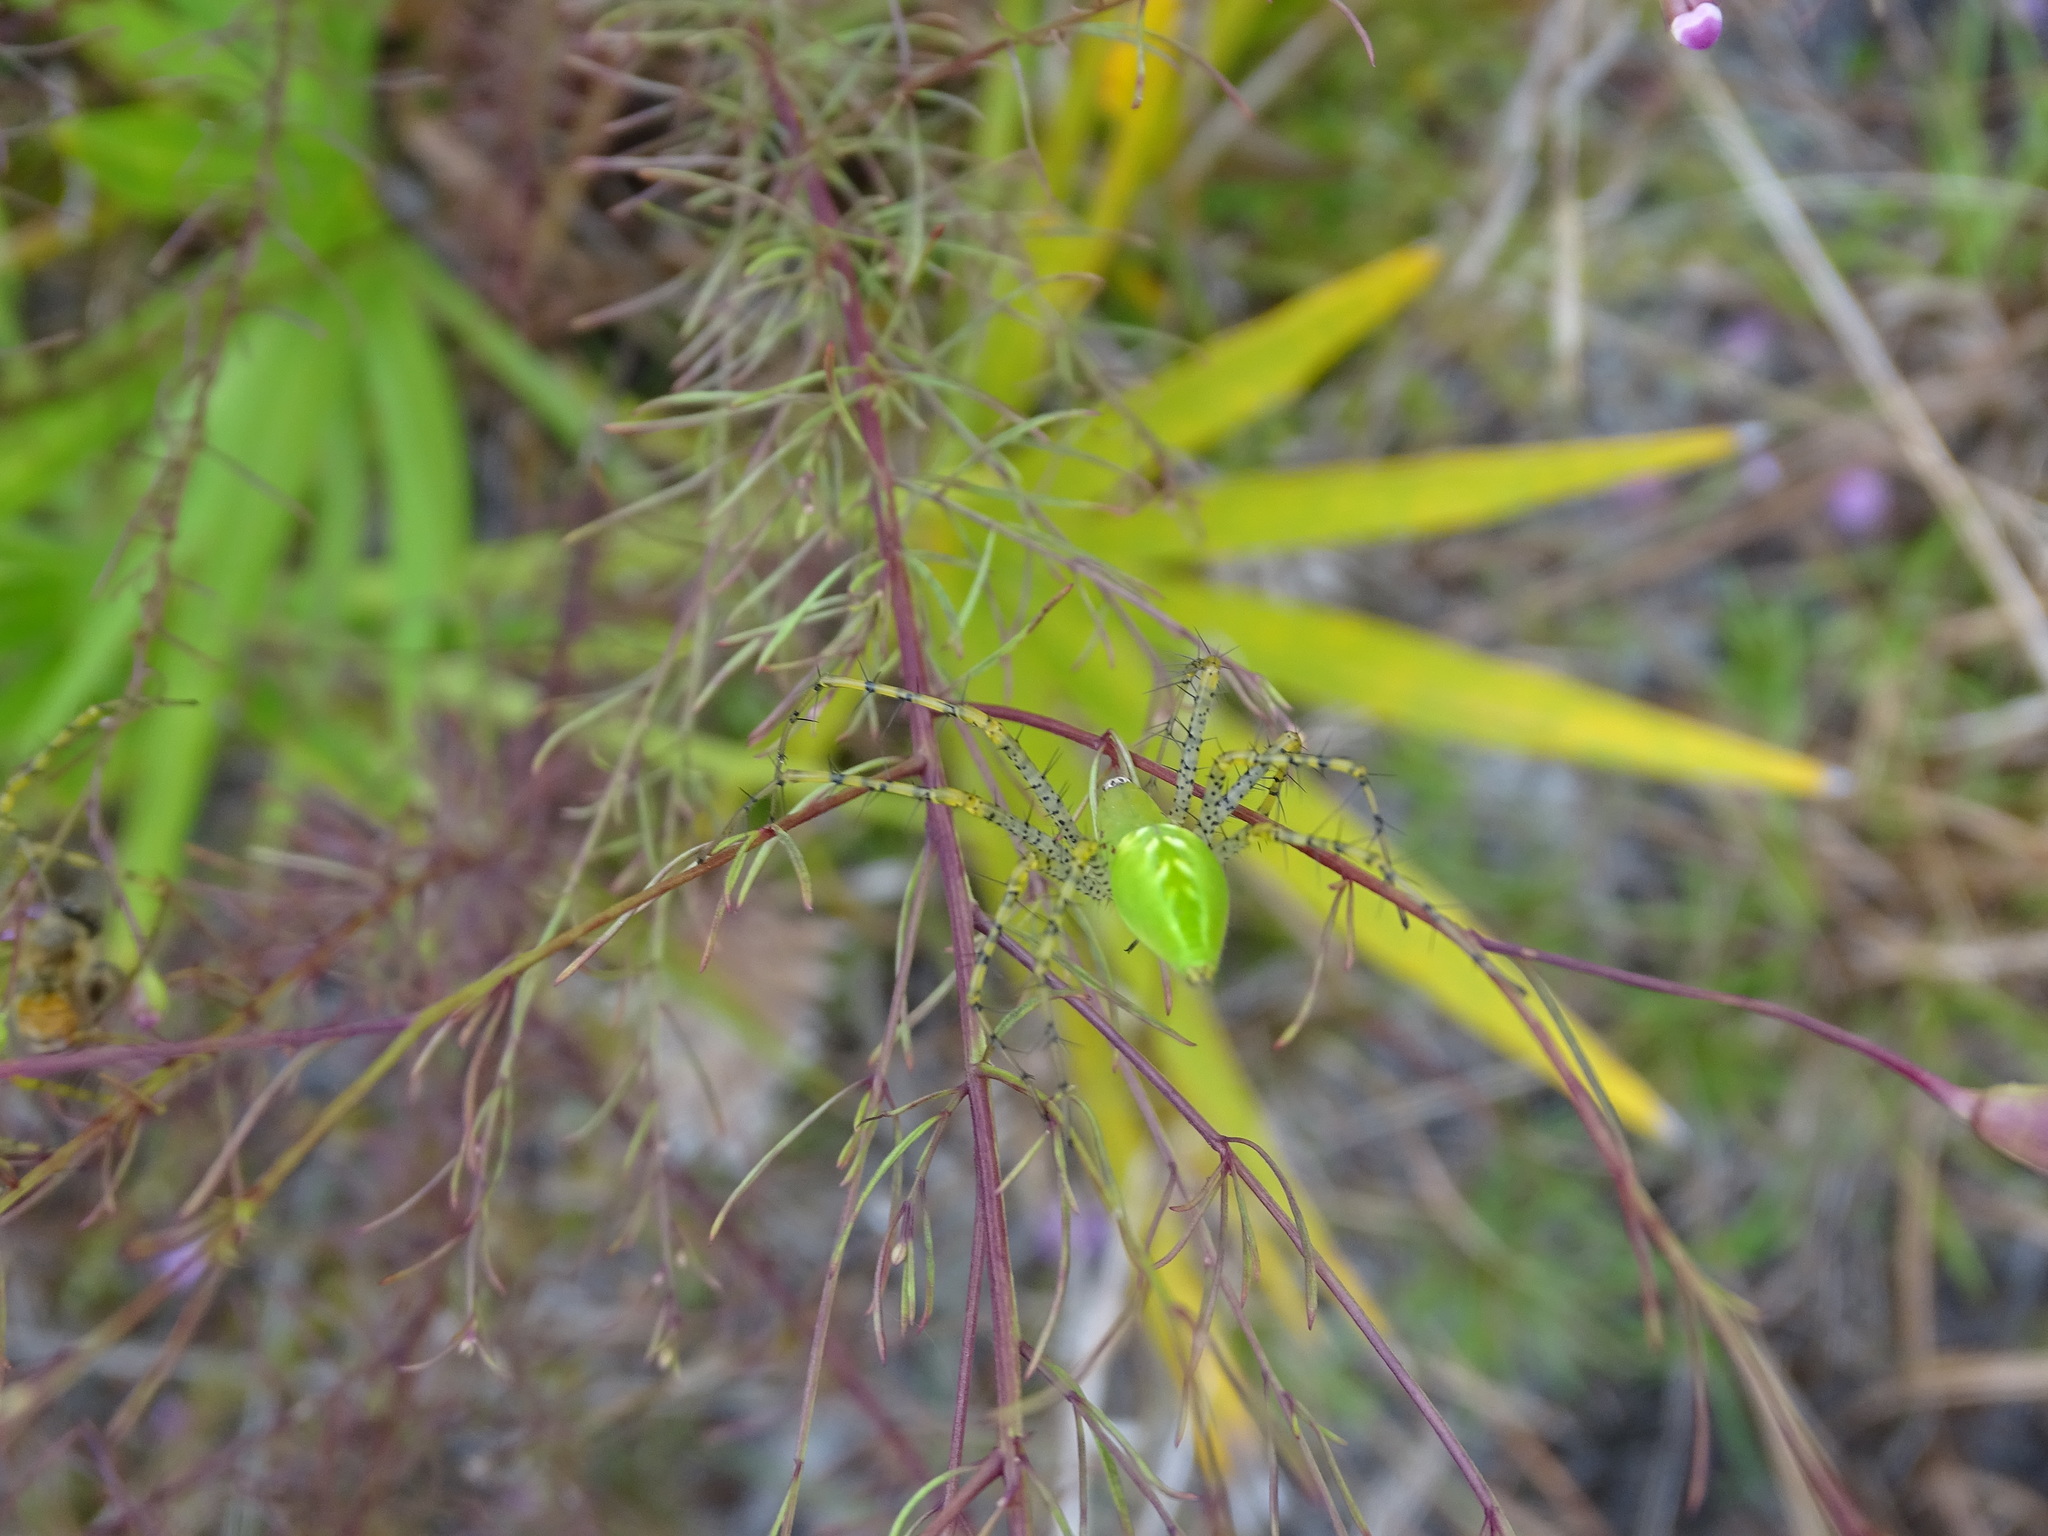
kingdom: Animalia
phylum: Arthropoda
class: Arachnida
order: Araneae
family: Oxyopidae
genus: Peucetia
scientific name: Peucetia viridans
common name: Lynx spiders
